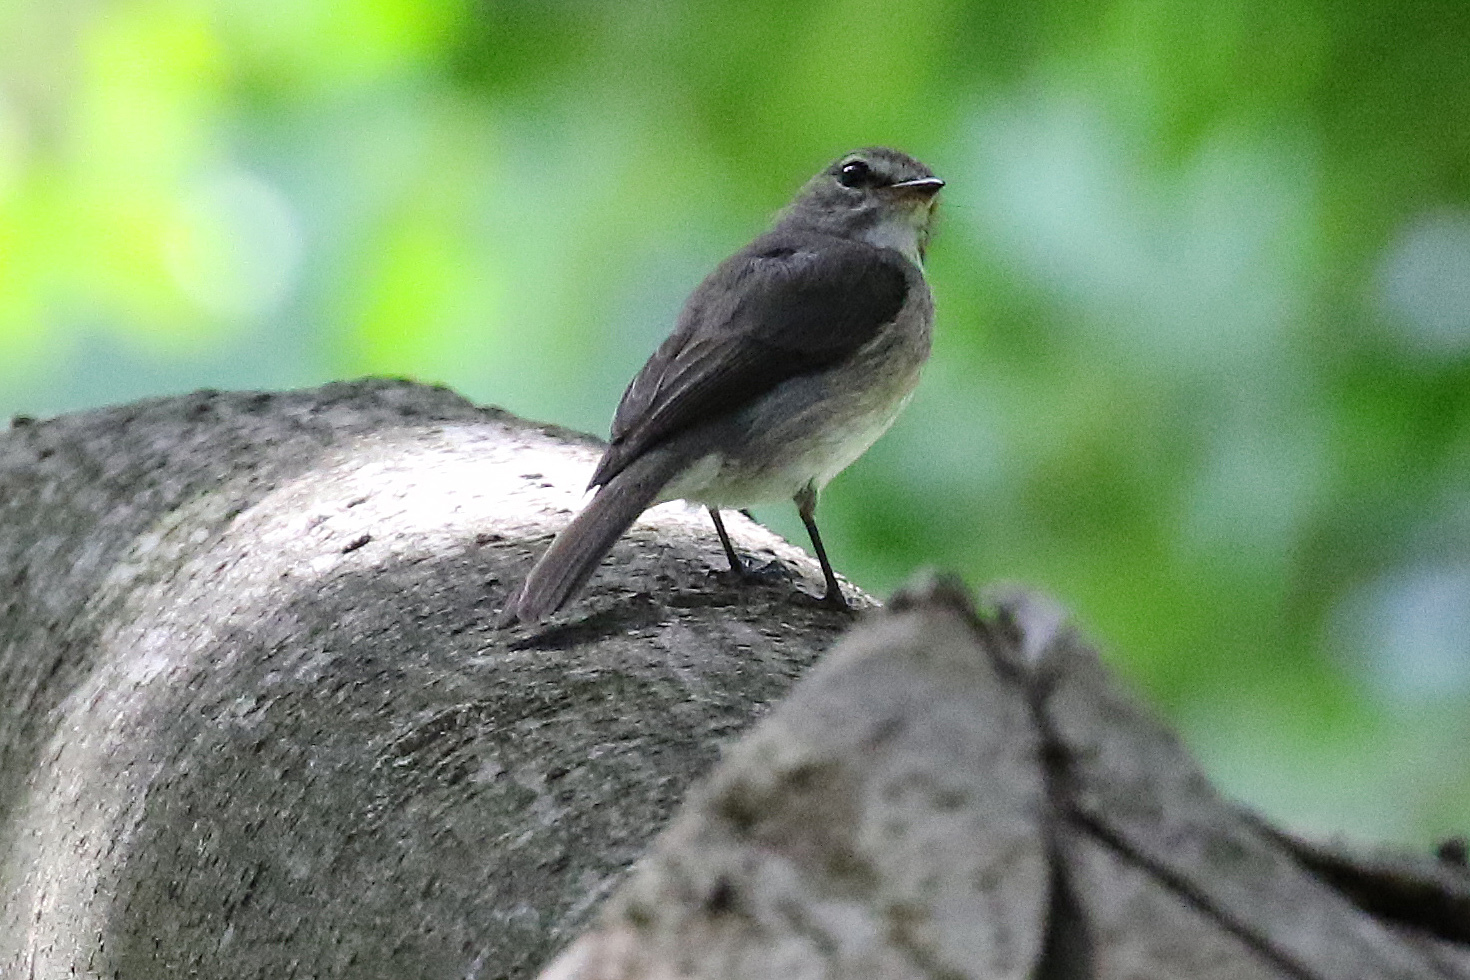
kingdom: Animalia
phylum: Chordata
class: Aves
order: Passeriformes
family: Muscicapidae
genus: Muscicapa
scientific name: Muscicapa adusta
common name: African dusky flycatcher
